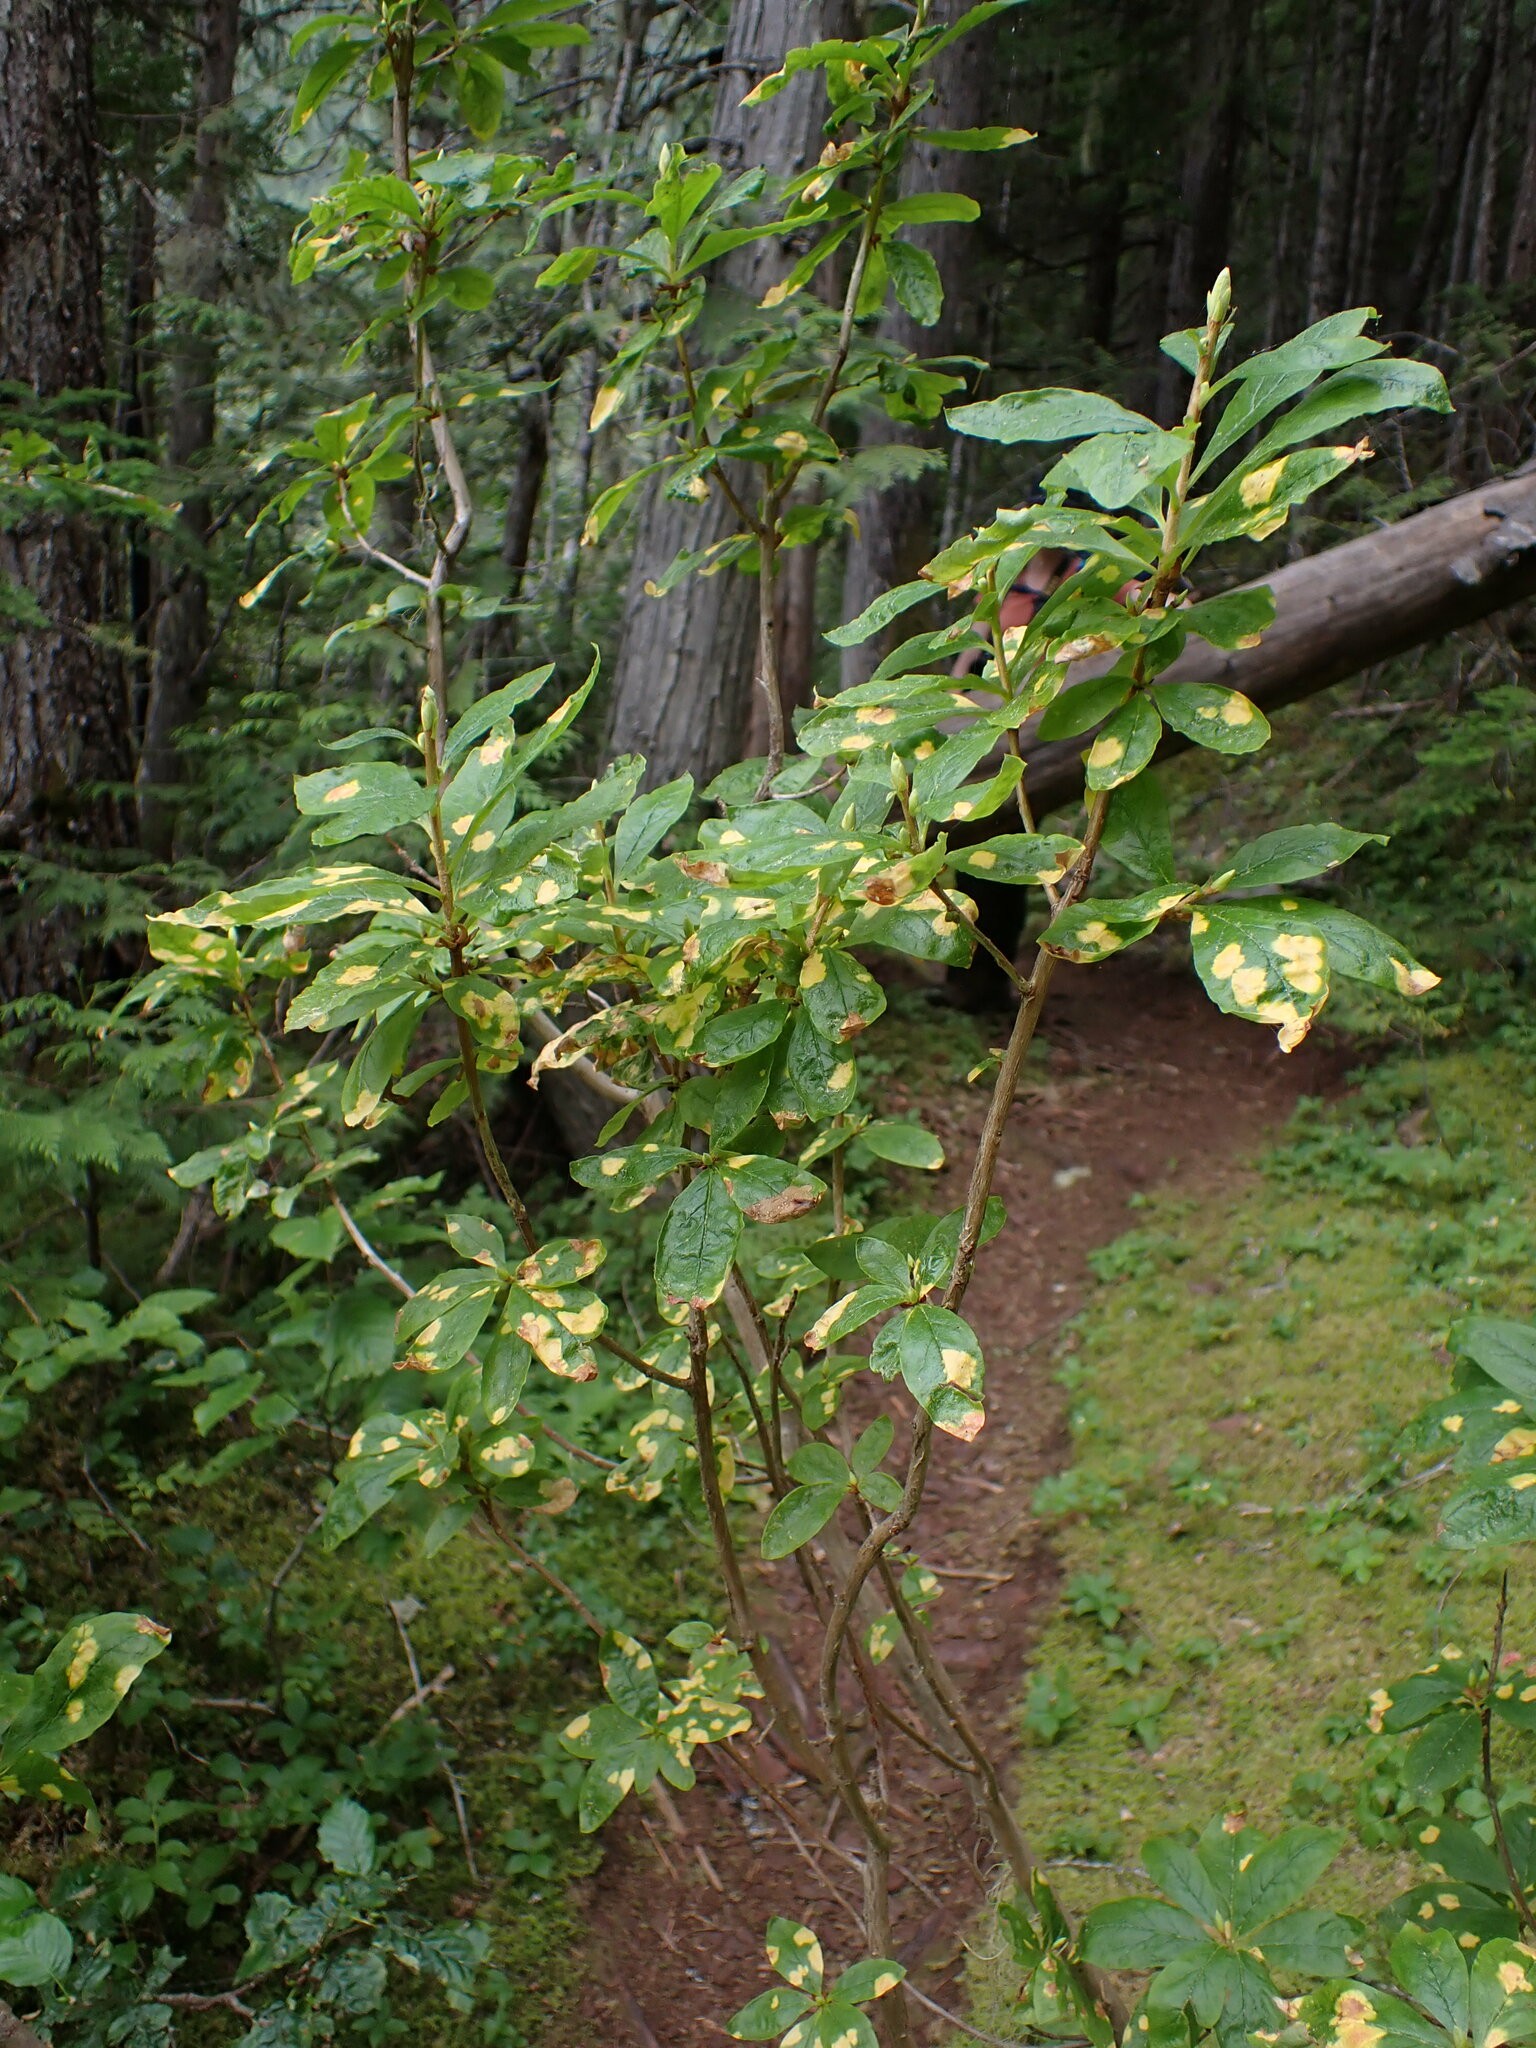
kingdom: Plantae
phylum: Tracheophyta
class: Magnoliopsida
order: Ericales
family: Ericaceae
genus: Rhododendron
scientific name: Rhododendron albiflorum
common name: White rhododendron
